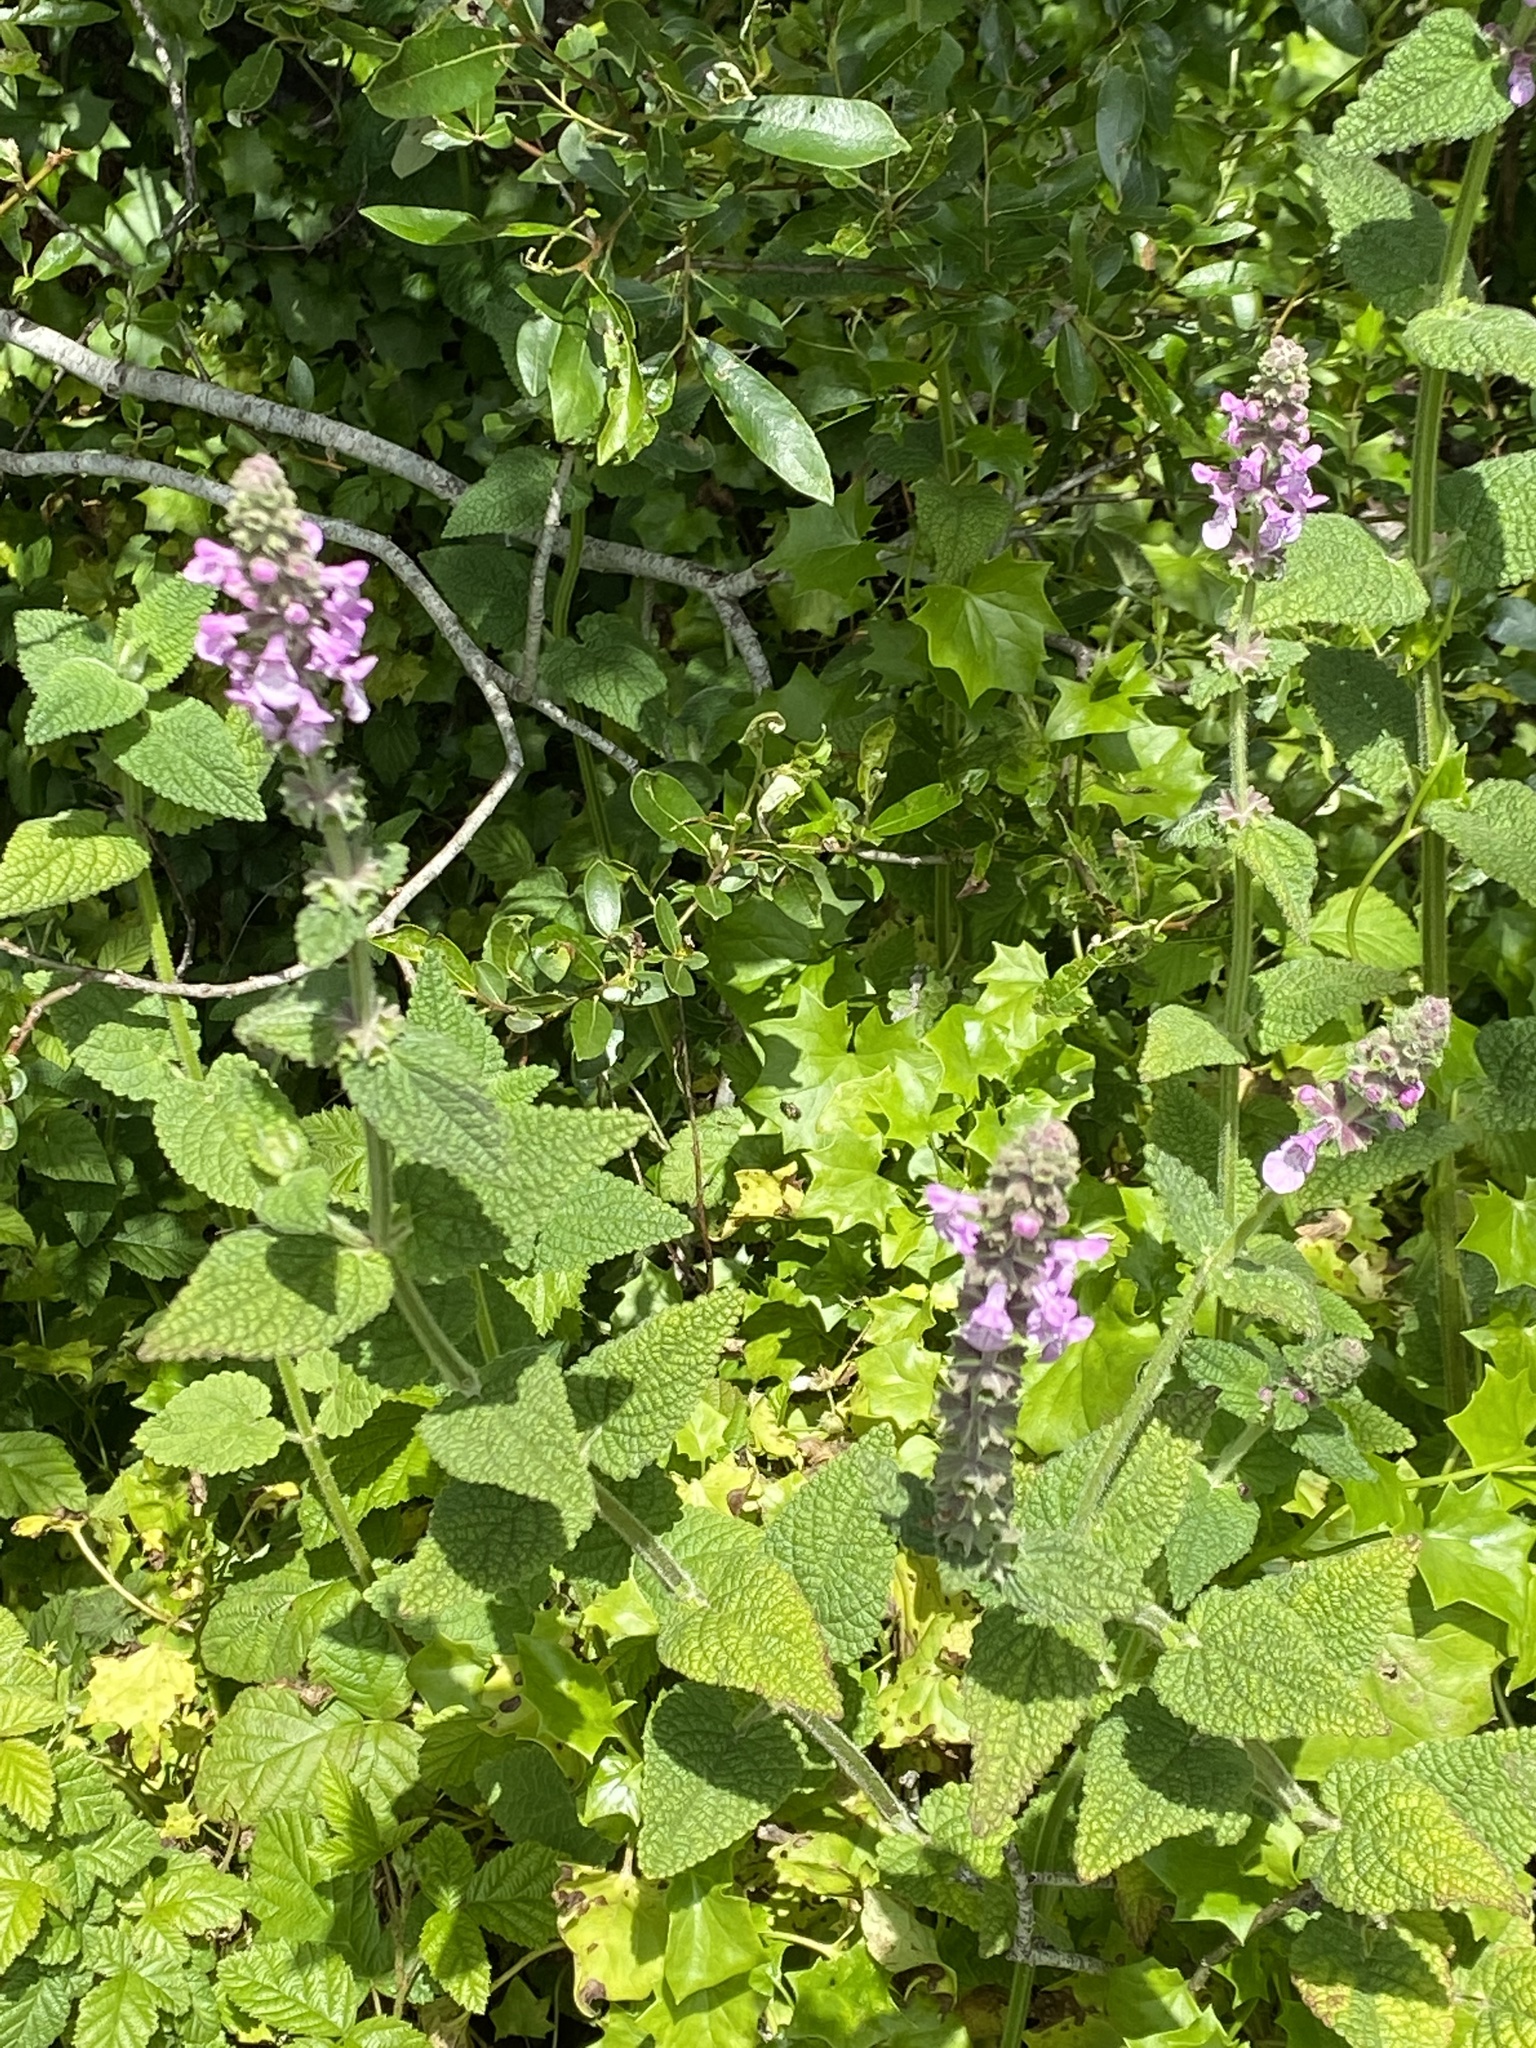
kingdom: Plantae
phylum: Tracheophyta
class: Magnoliopsida
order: Lamiales
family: Lamiaceae
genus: Stachys
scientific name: Stachys bullata
